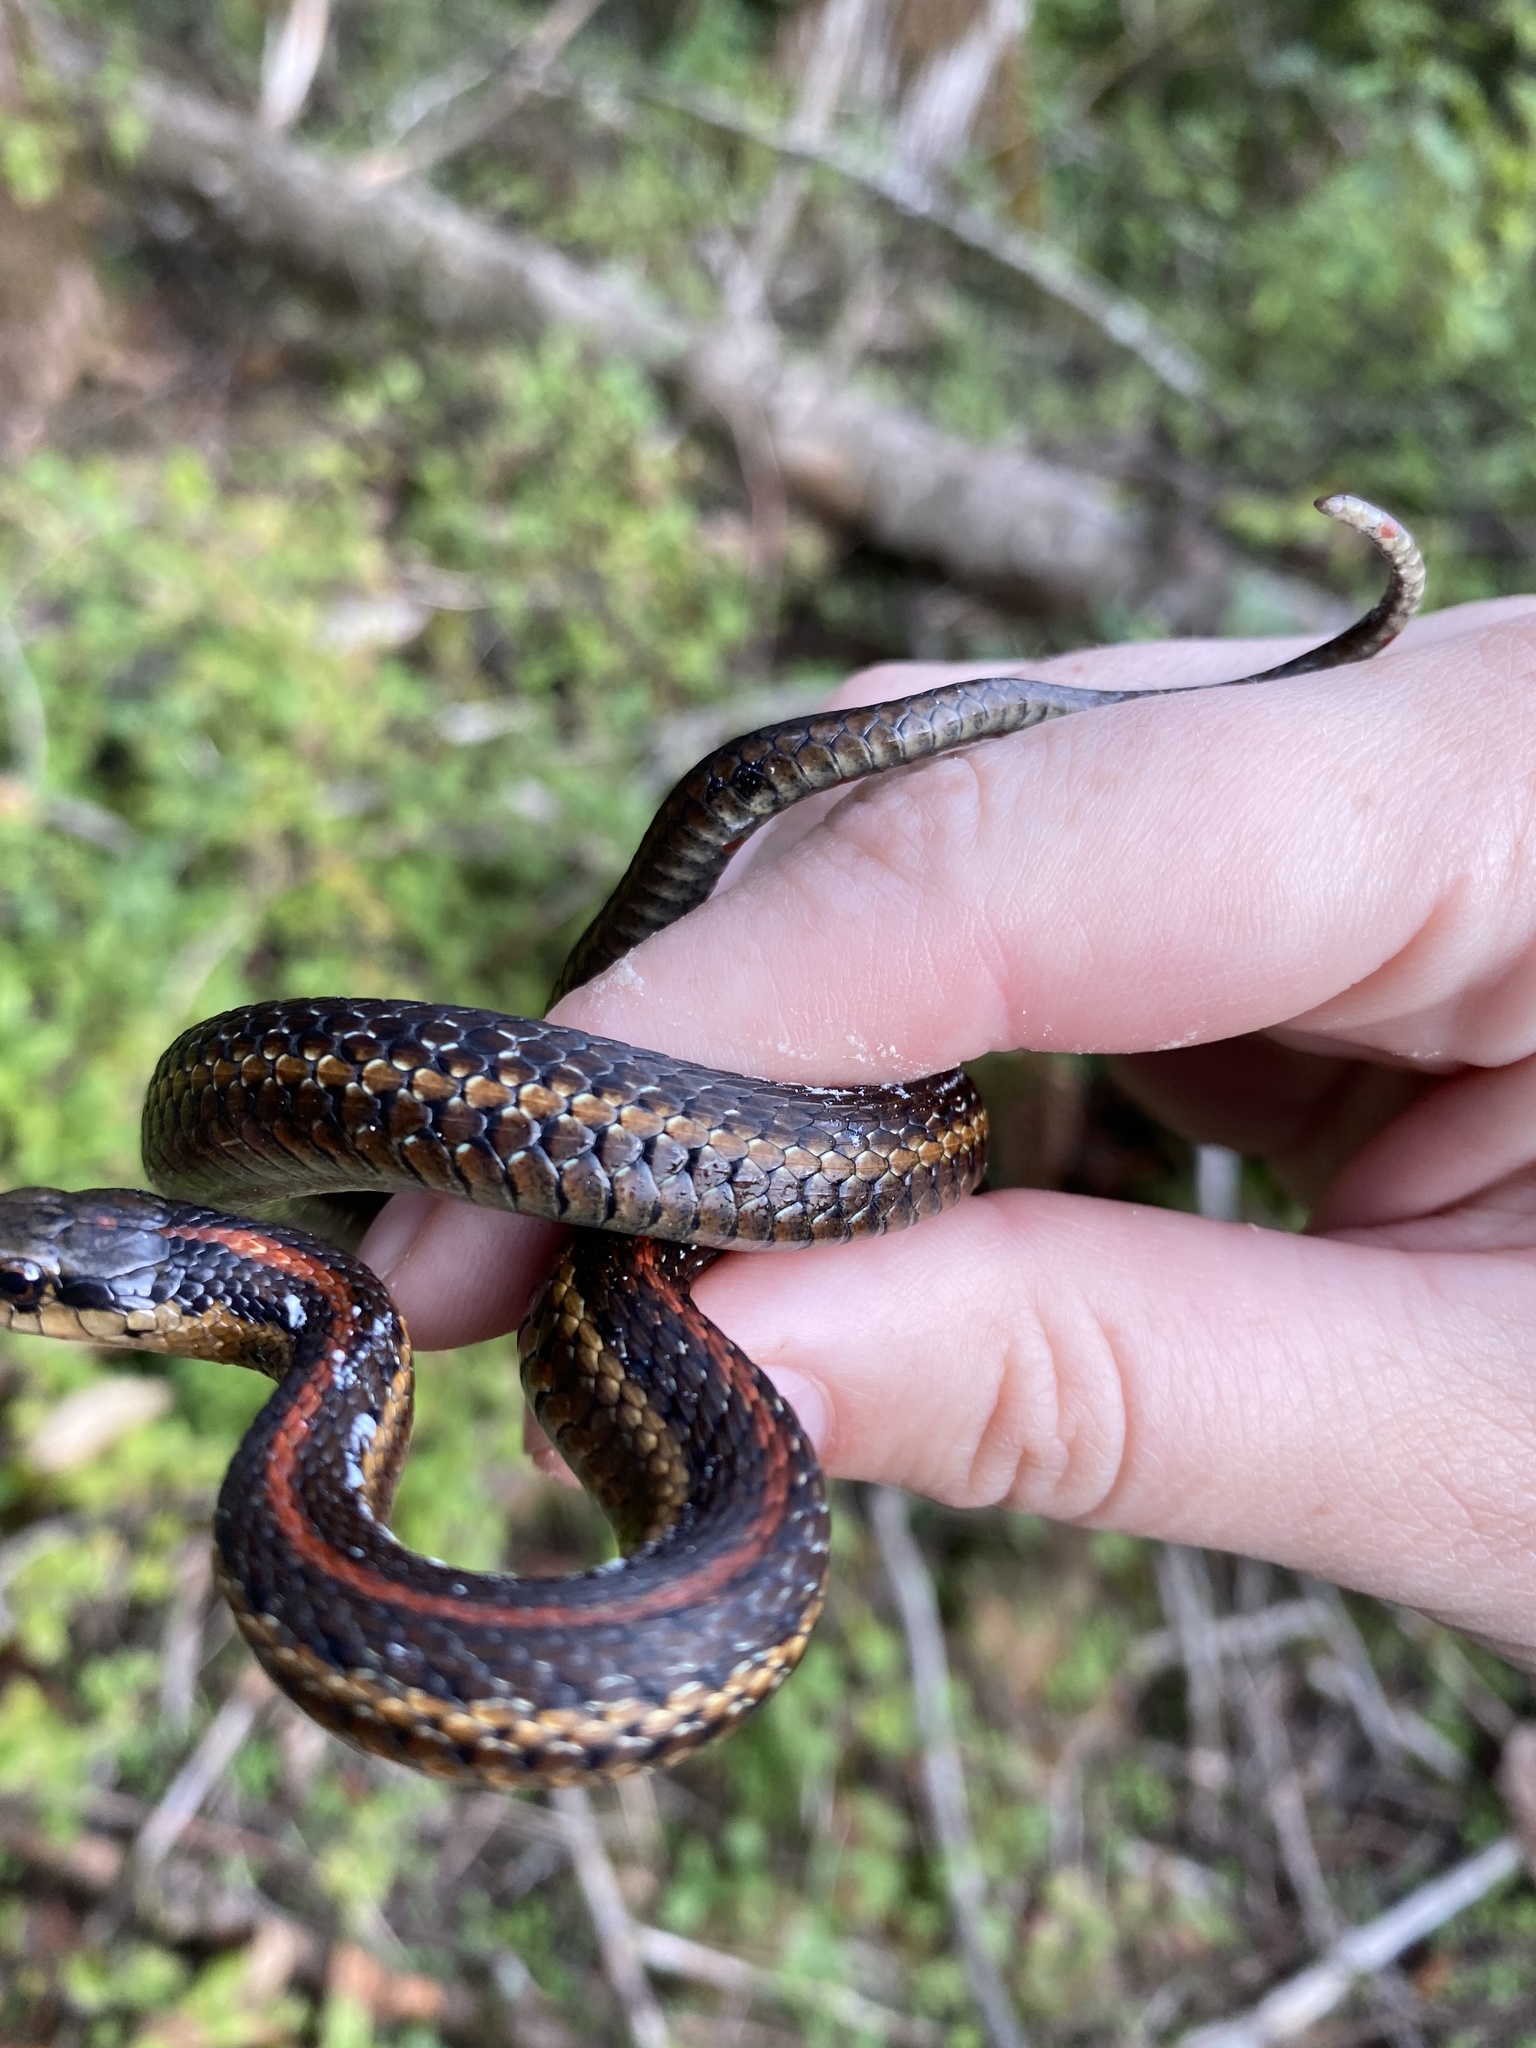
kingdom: Animalia
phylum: Chordata
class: Squamata
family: Colubridae
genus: Thamnophis
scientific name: Thamnophis ordinoides
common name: Northwestern garter snake
